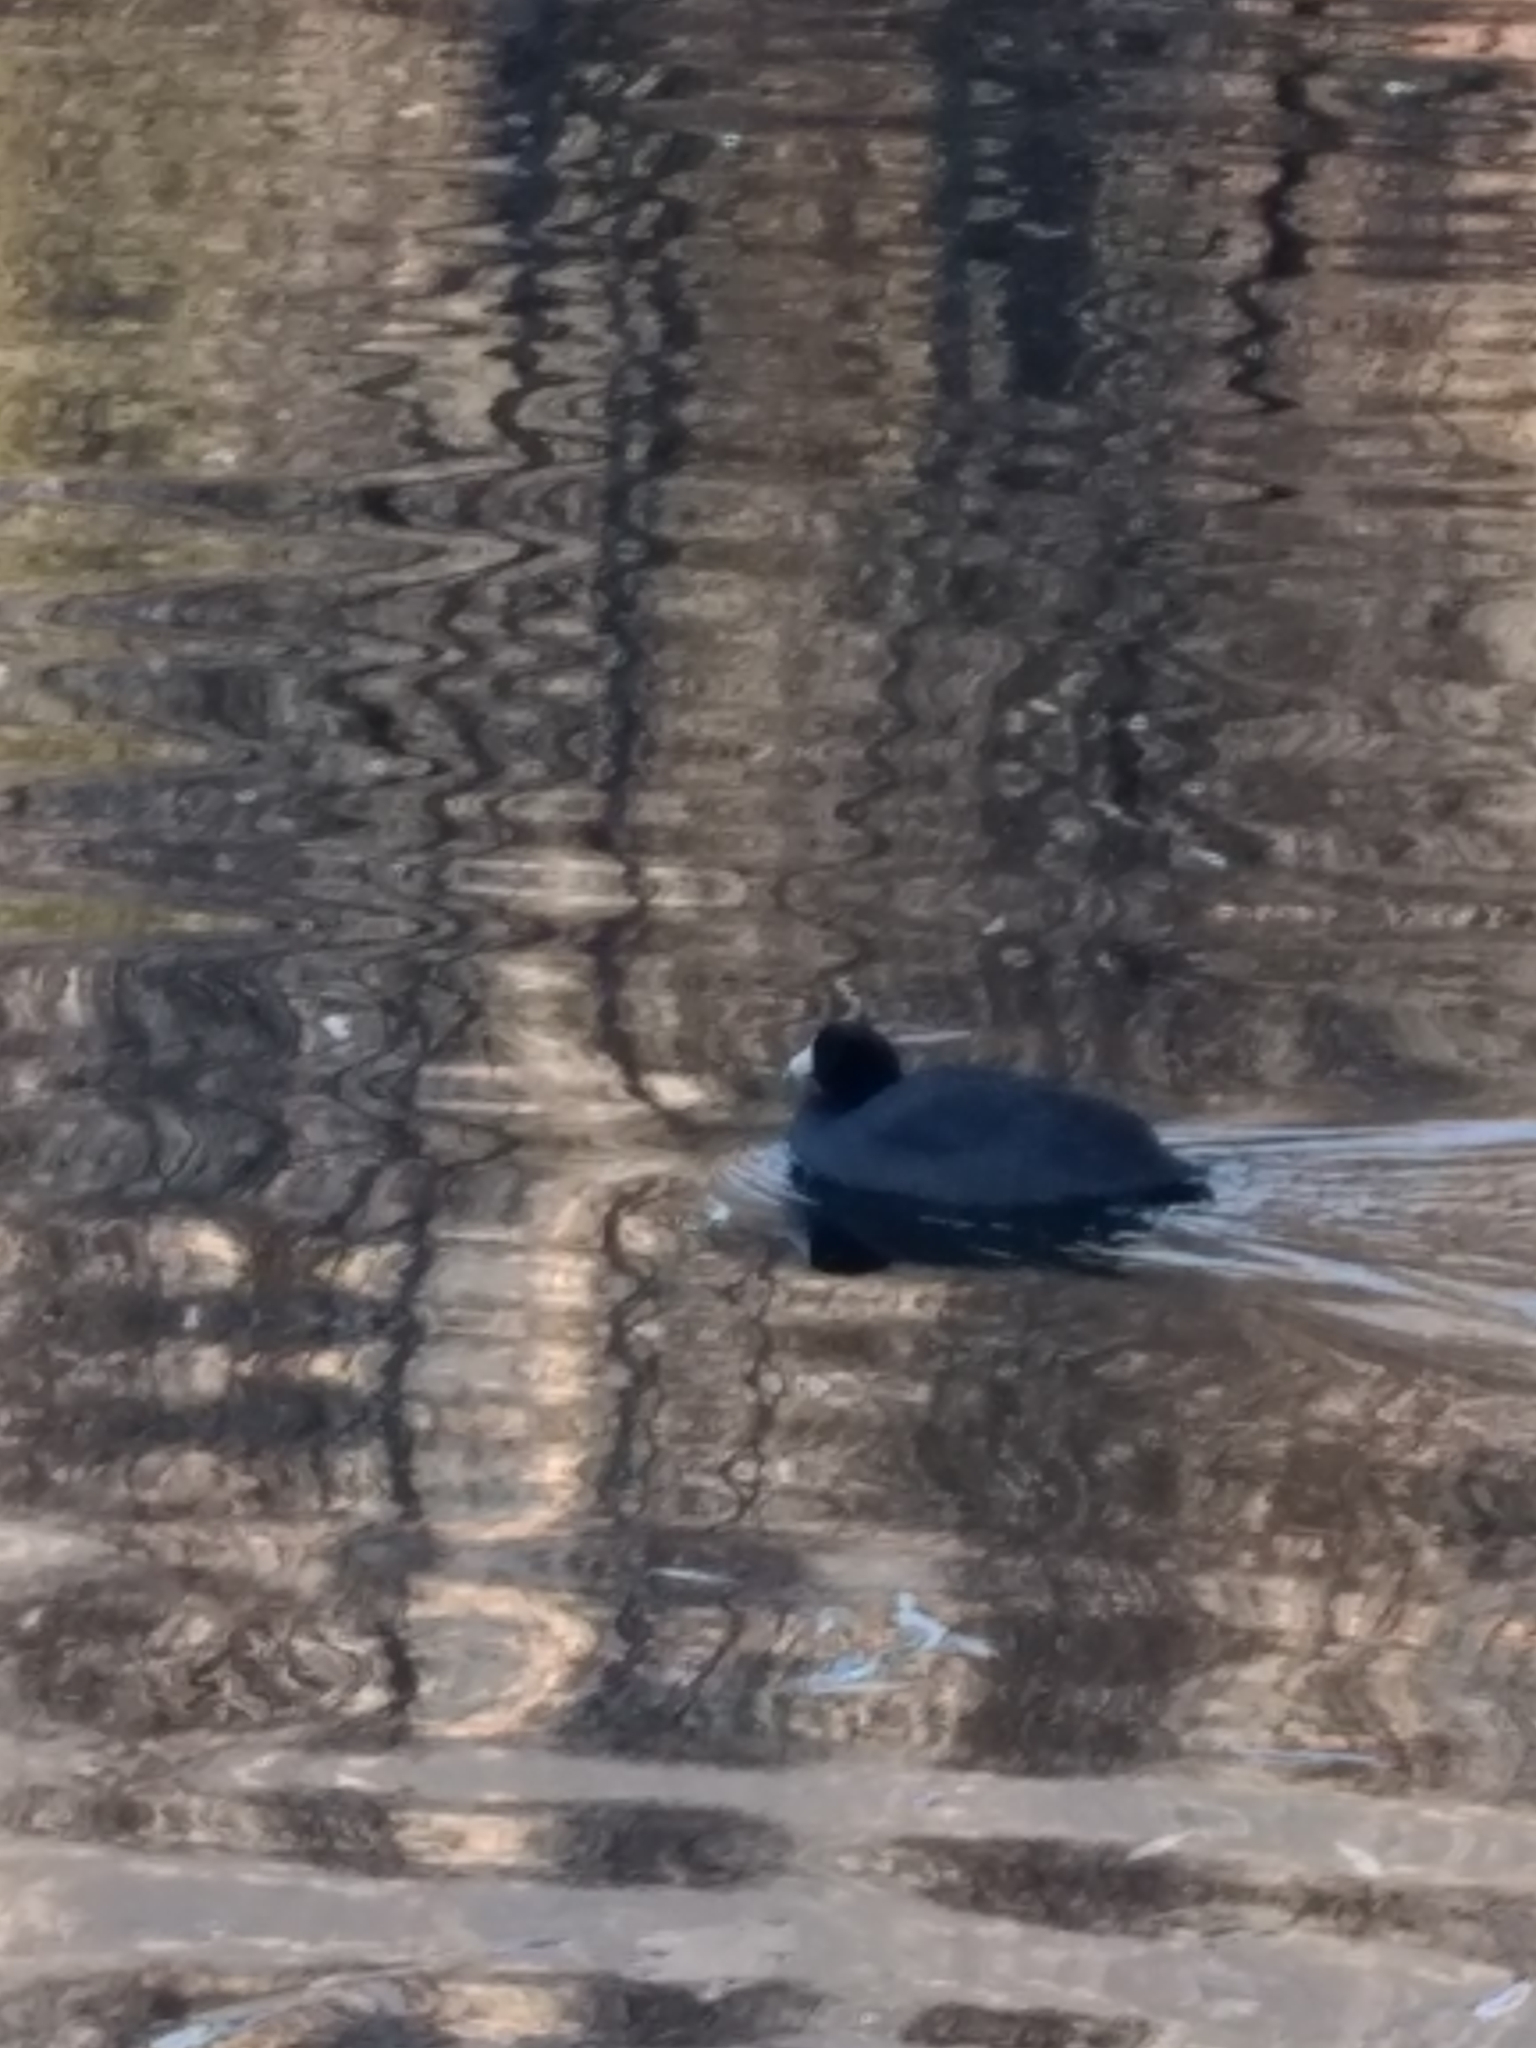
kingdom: Animalia
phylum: Chordata
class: Aves
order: Gruiformes
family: Rallidae
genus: Fulica
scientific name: Fulica americana
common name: American coot
